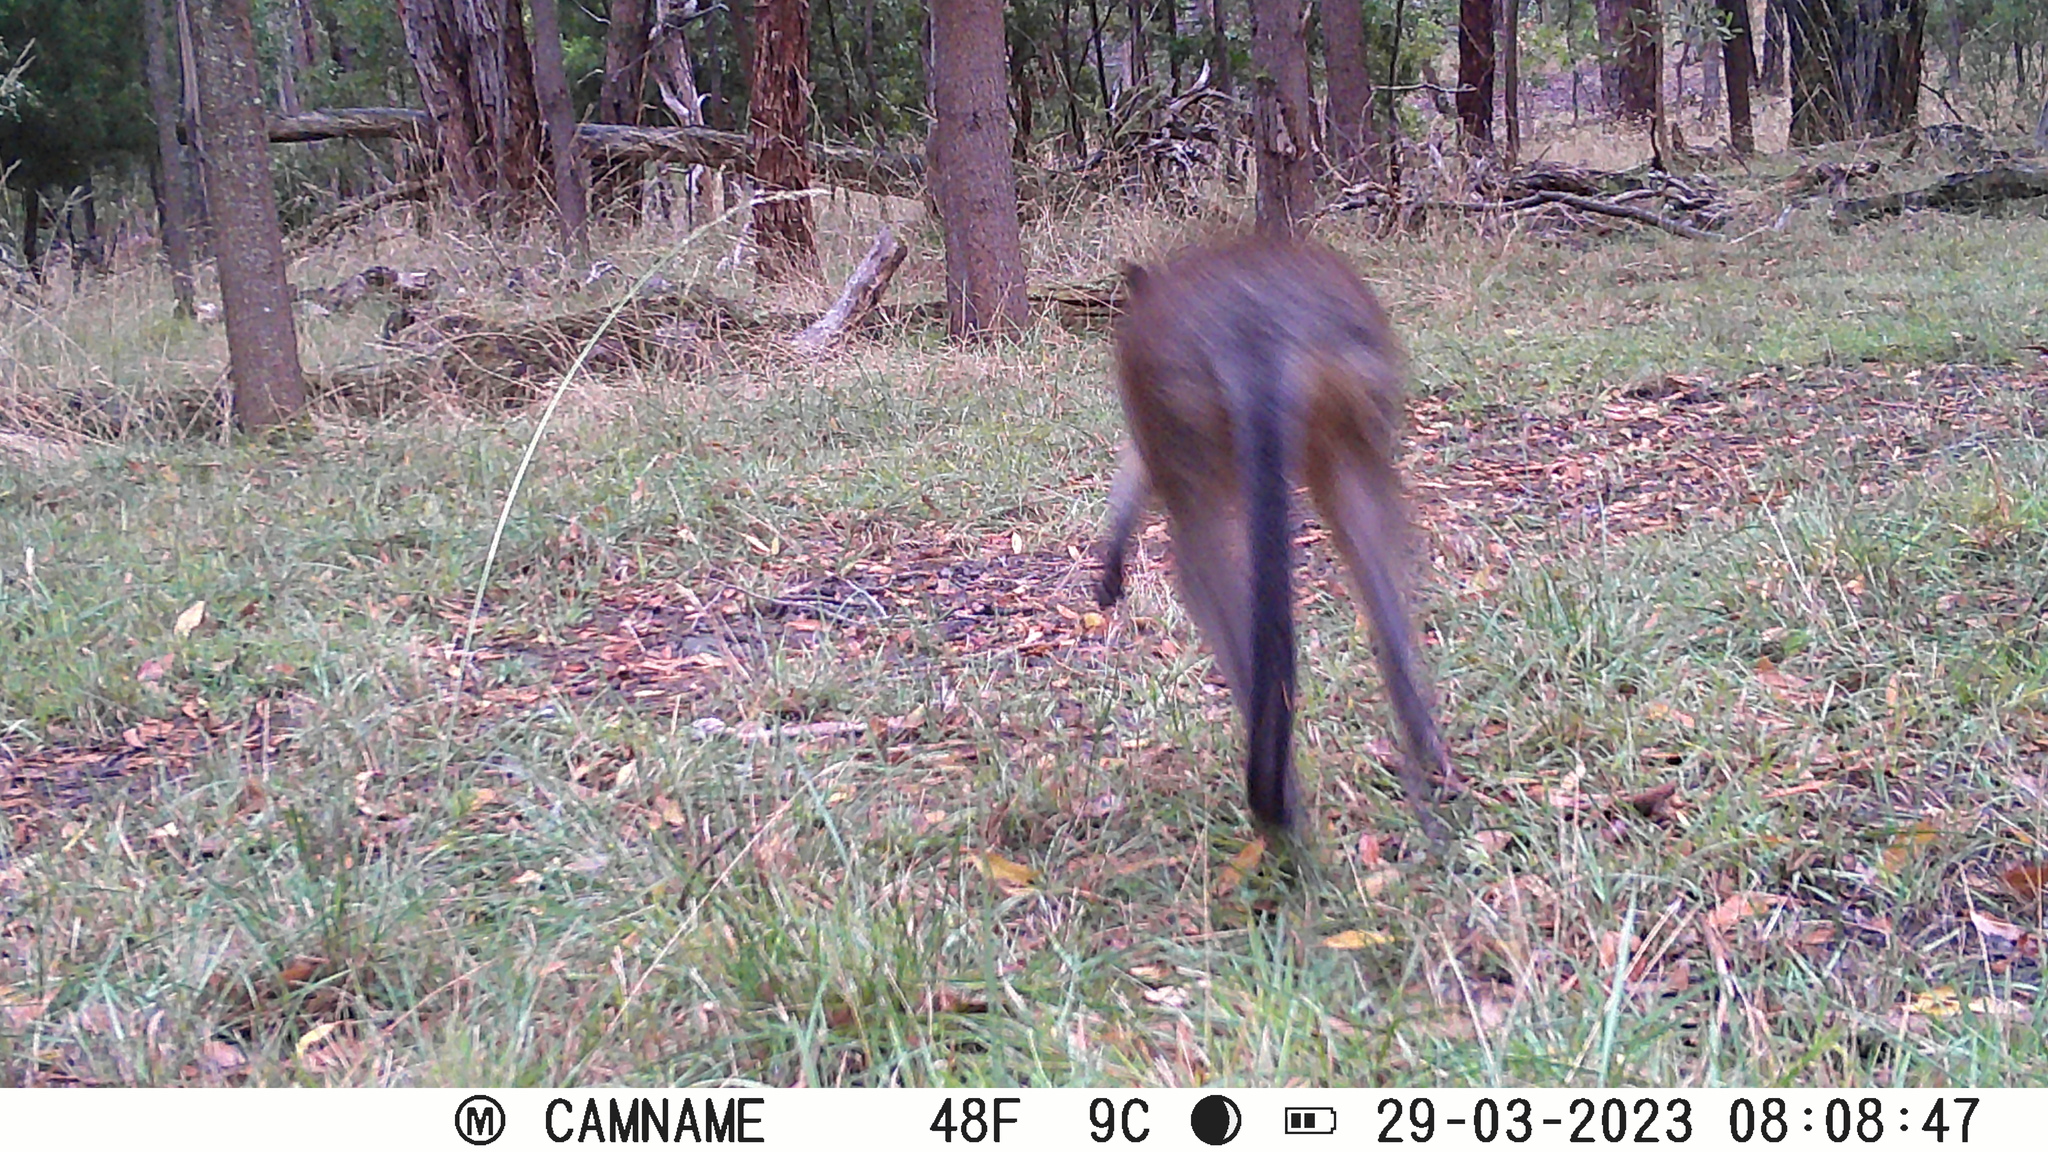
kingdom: Animalia
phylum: Chordata
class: Mammalia
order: Diprotodontia
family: Macropodidae
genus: Wallabia
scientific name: Wallabia bicolor
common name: Swamp wallaby
